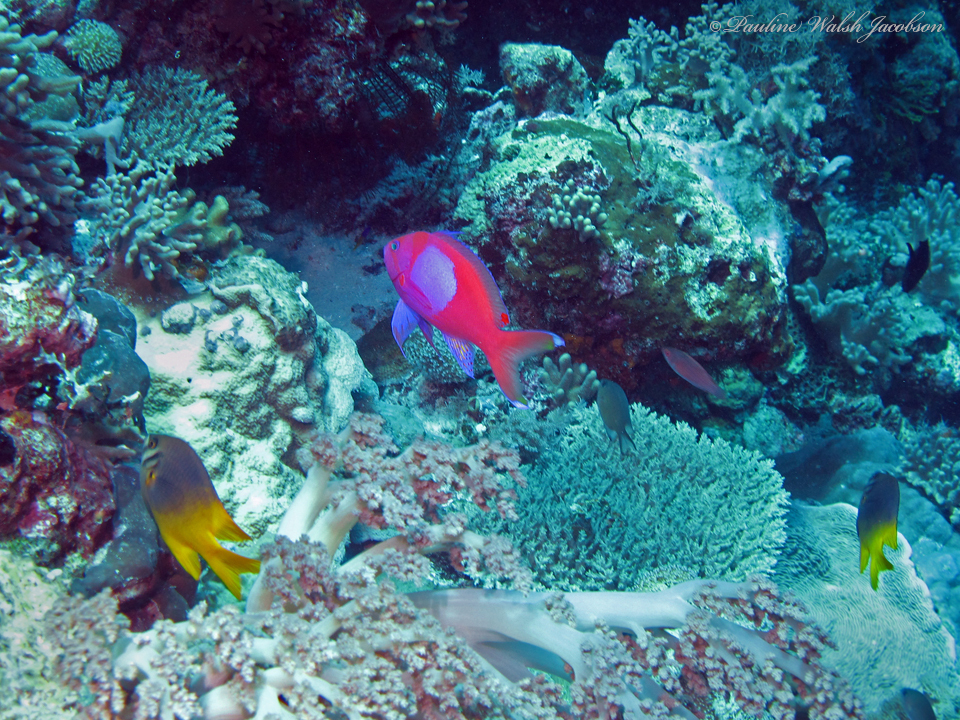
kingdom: Animalia
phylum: Chordata
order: Perciformes
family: Serranidae
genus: Pseudanthias
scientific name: Pseudanthias pleurotaenia
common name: Mirror basslet
